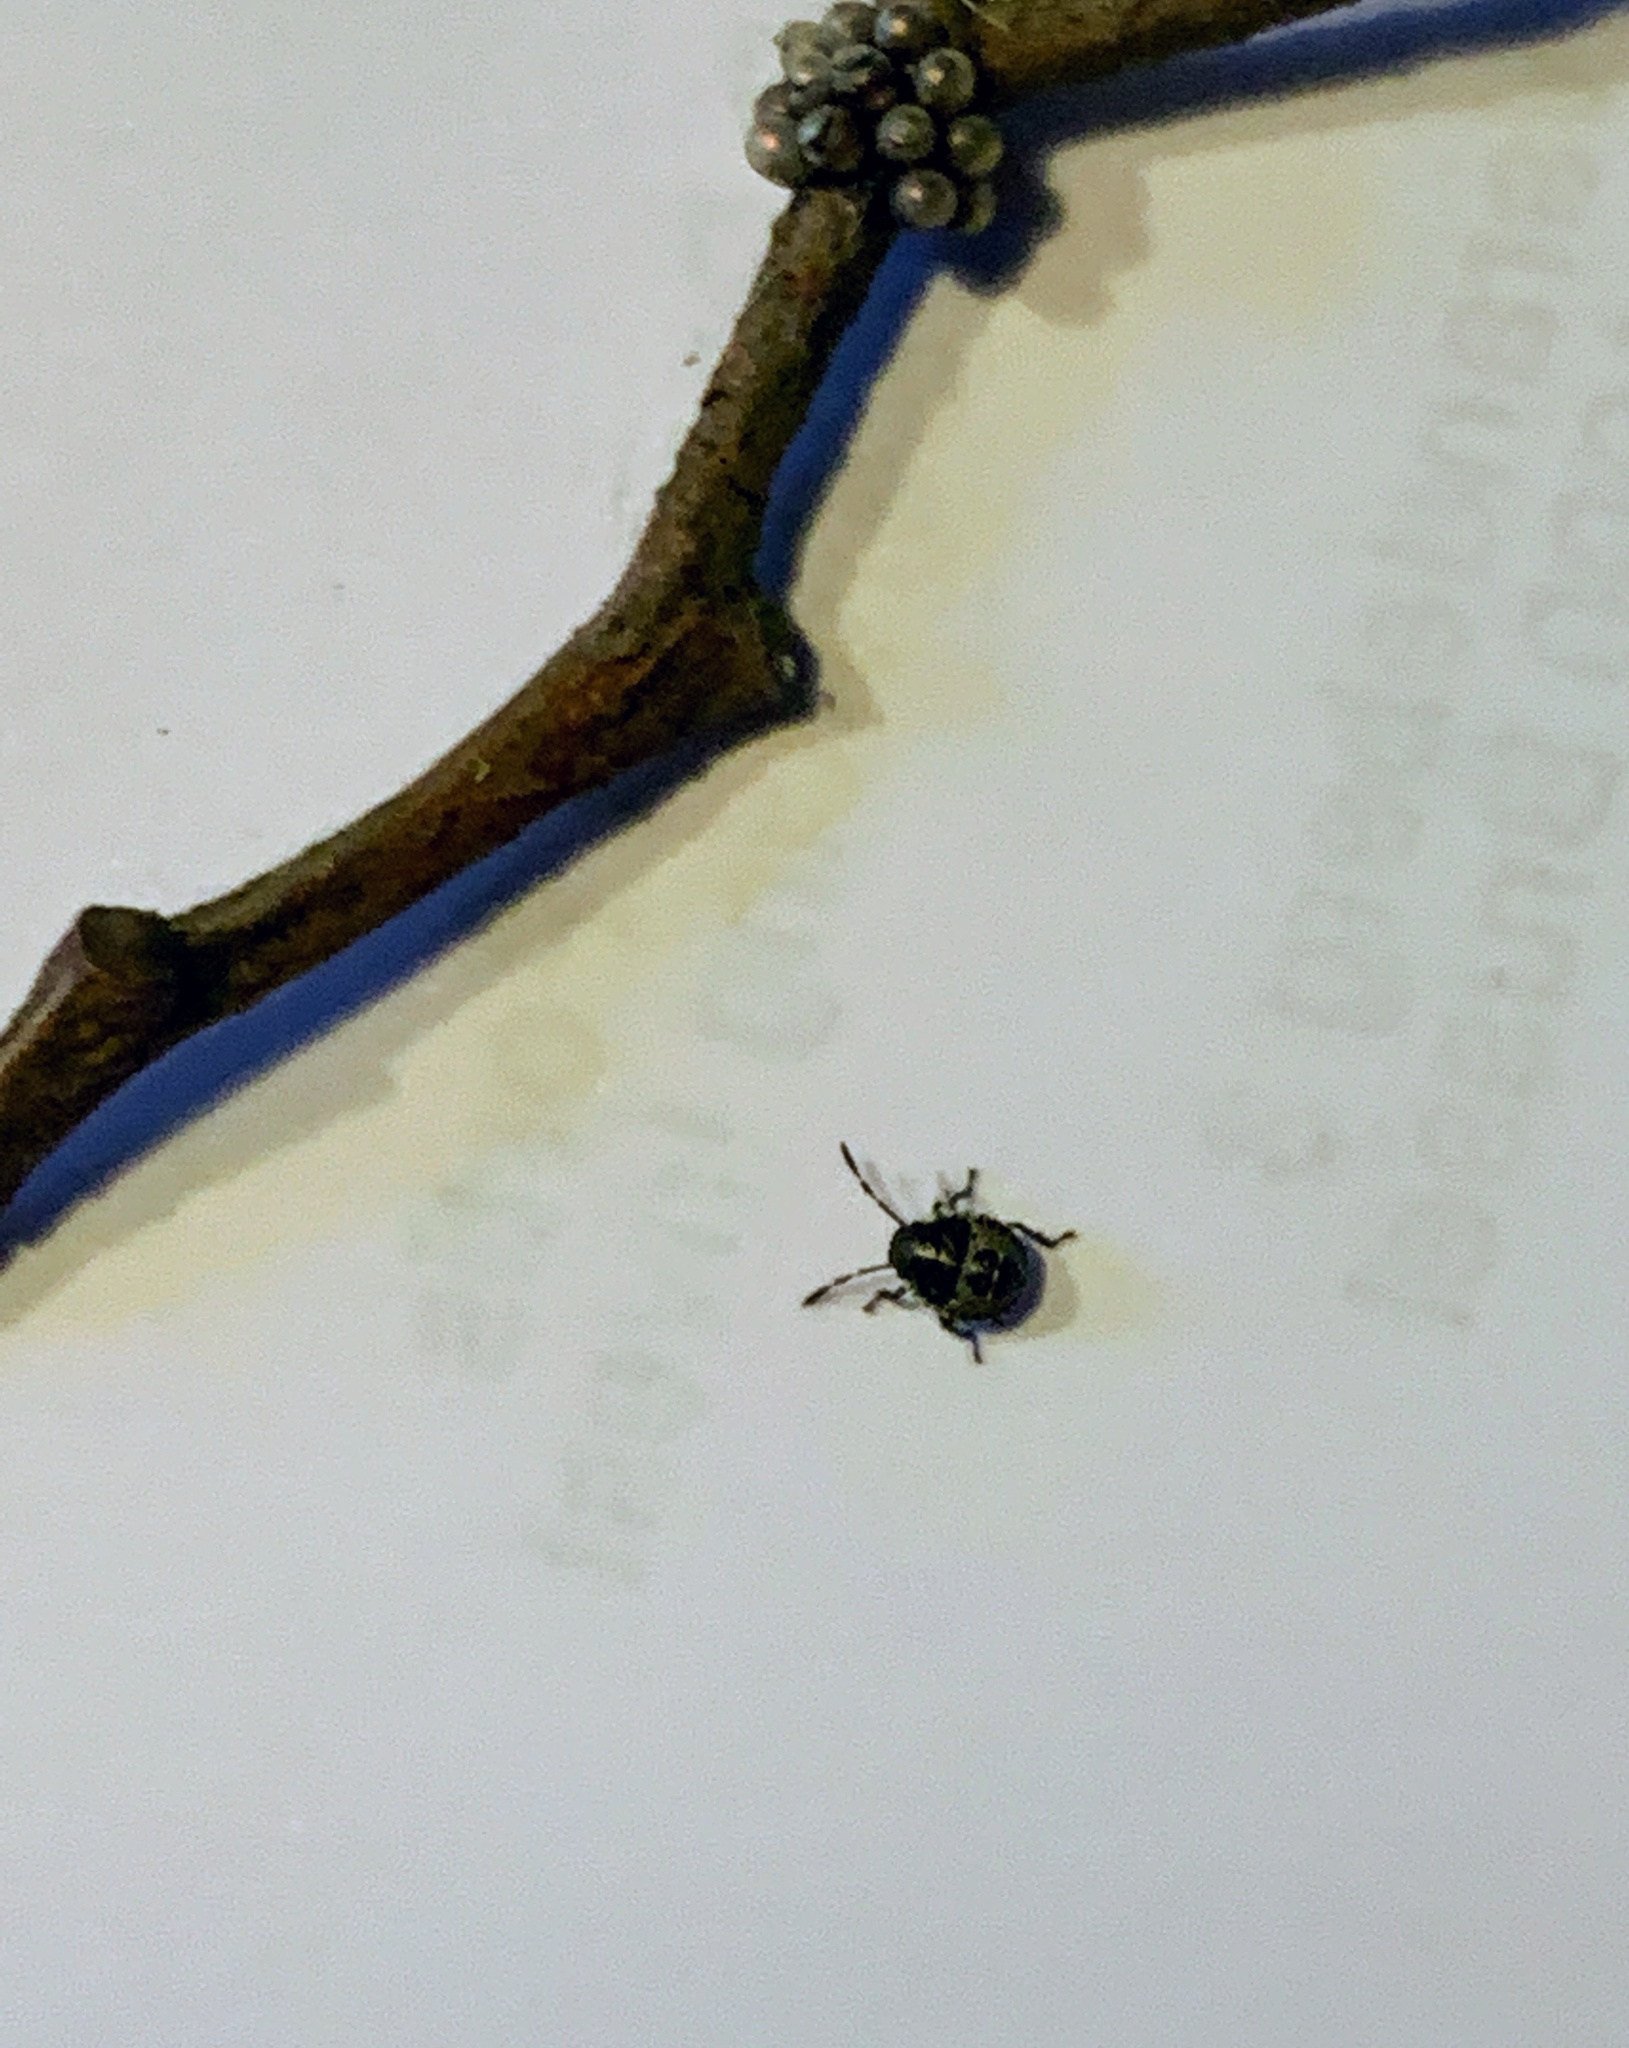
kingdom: Animalia
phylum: Arthropoda
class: Insecta
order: Hemiptera
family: Pentatomidae
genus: Rhaphigaster
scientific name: Rhaphigaster nebulosa
